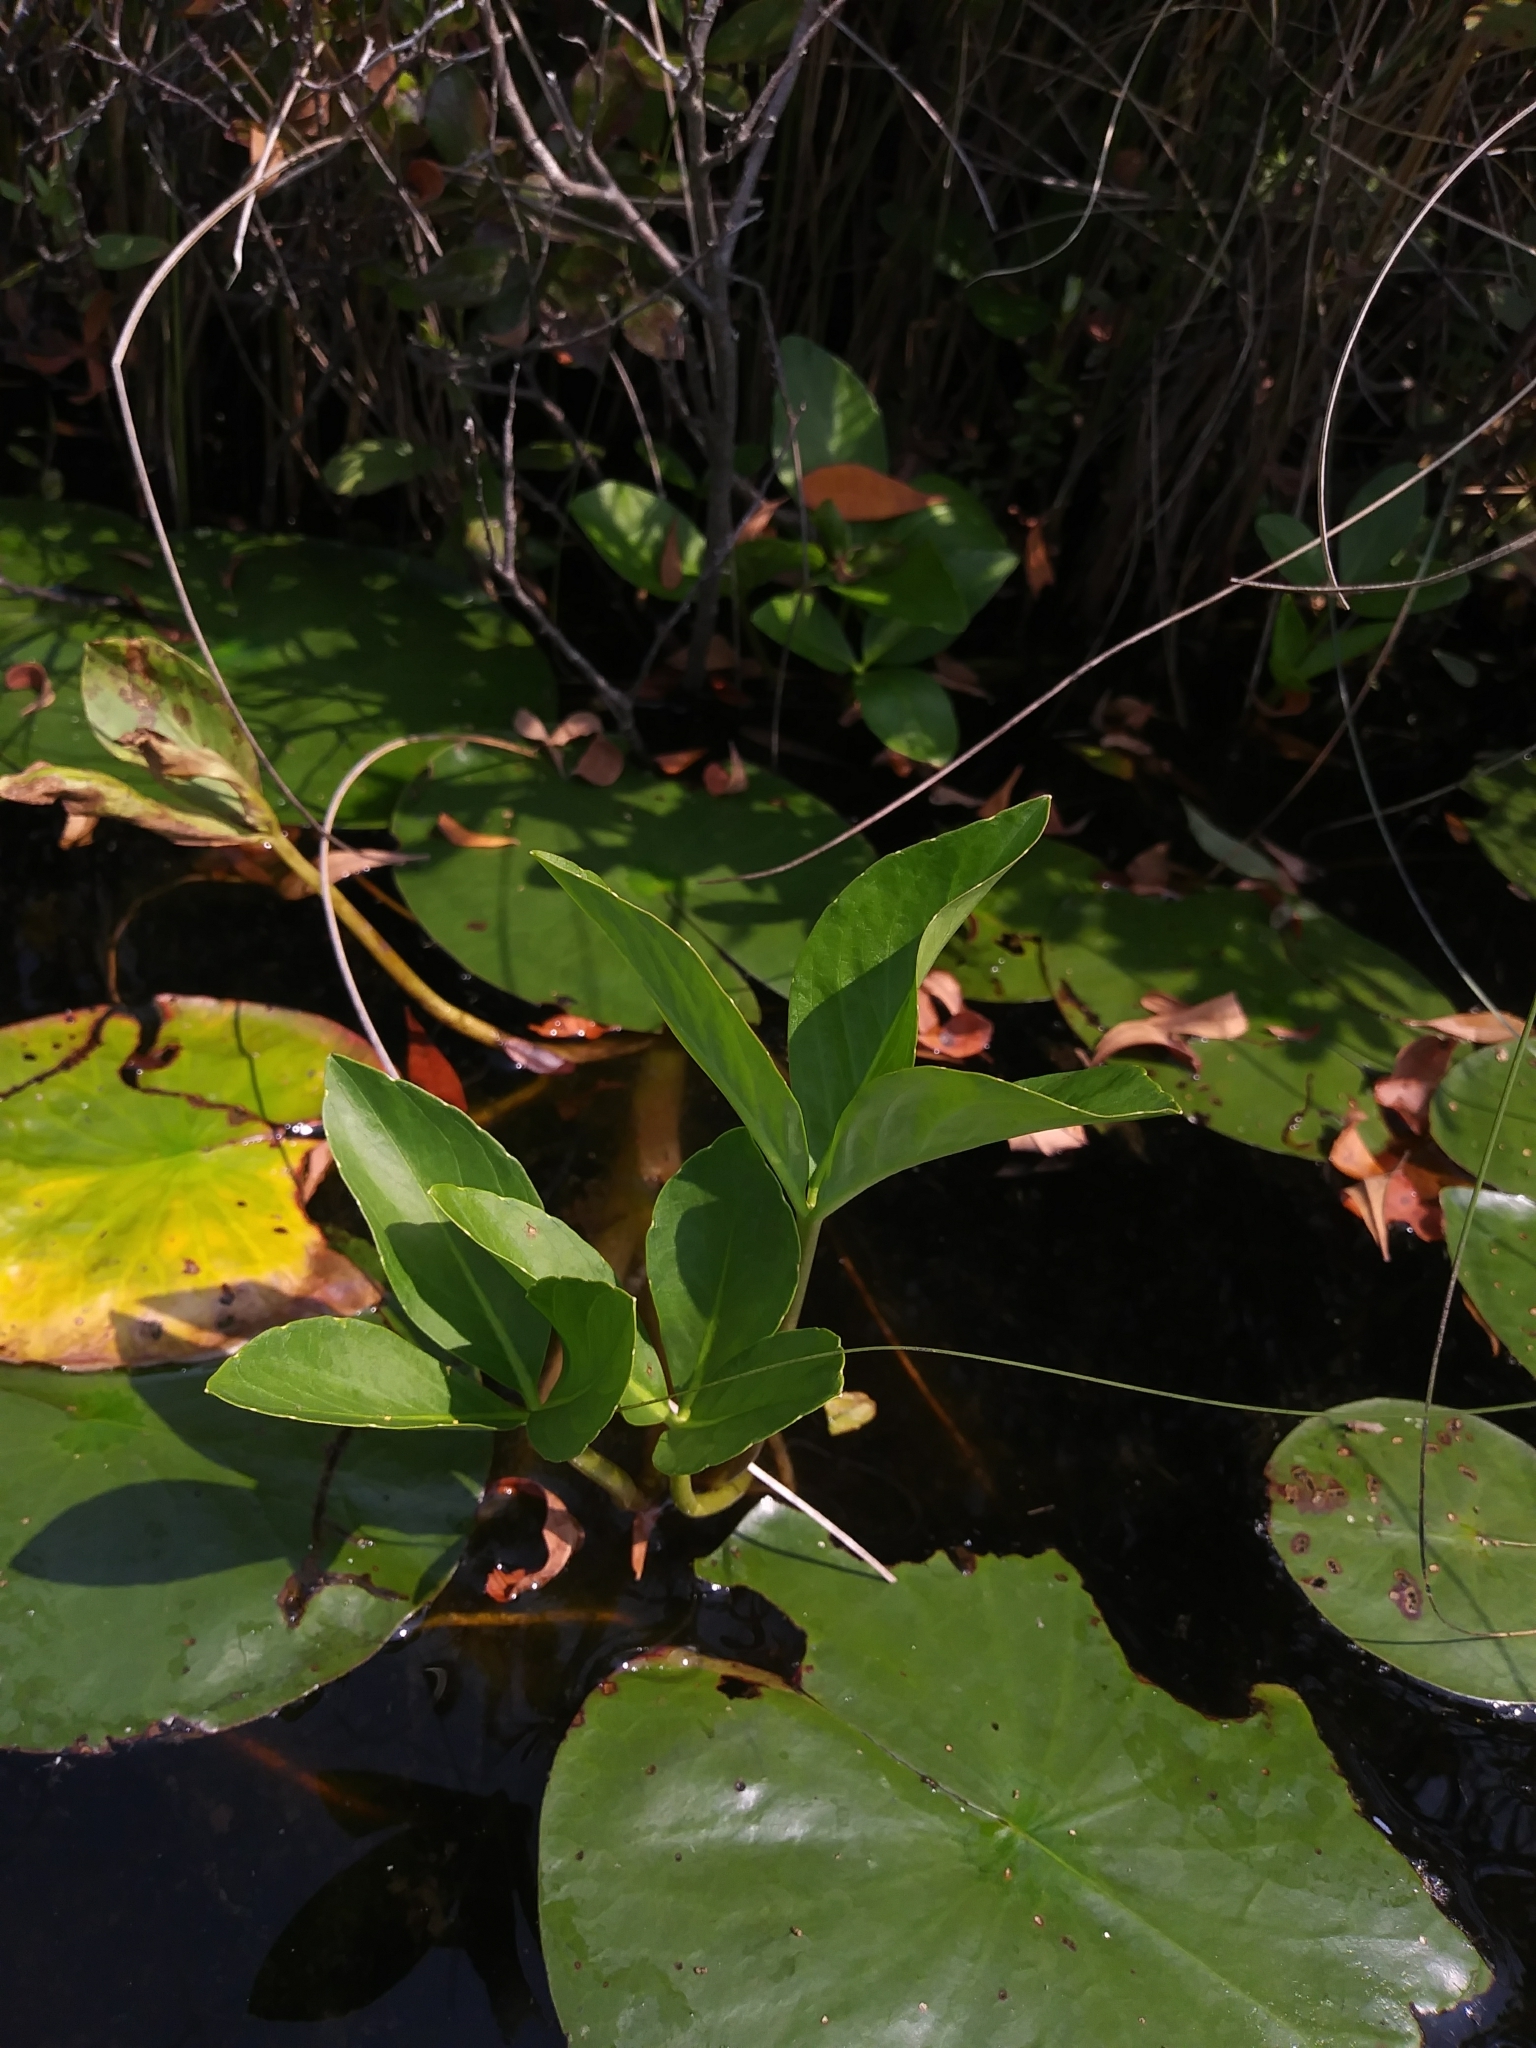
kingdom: Plantae
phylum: Tracheophyta
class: Magnoliopsida
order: Asterales
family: Menyanthaceae
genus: Menyanthes
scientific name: Menyanthes trifoliata
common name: Bogbean
